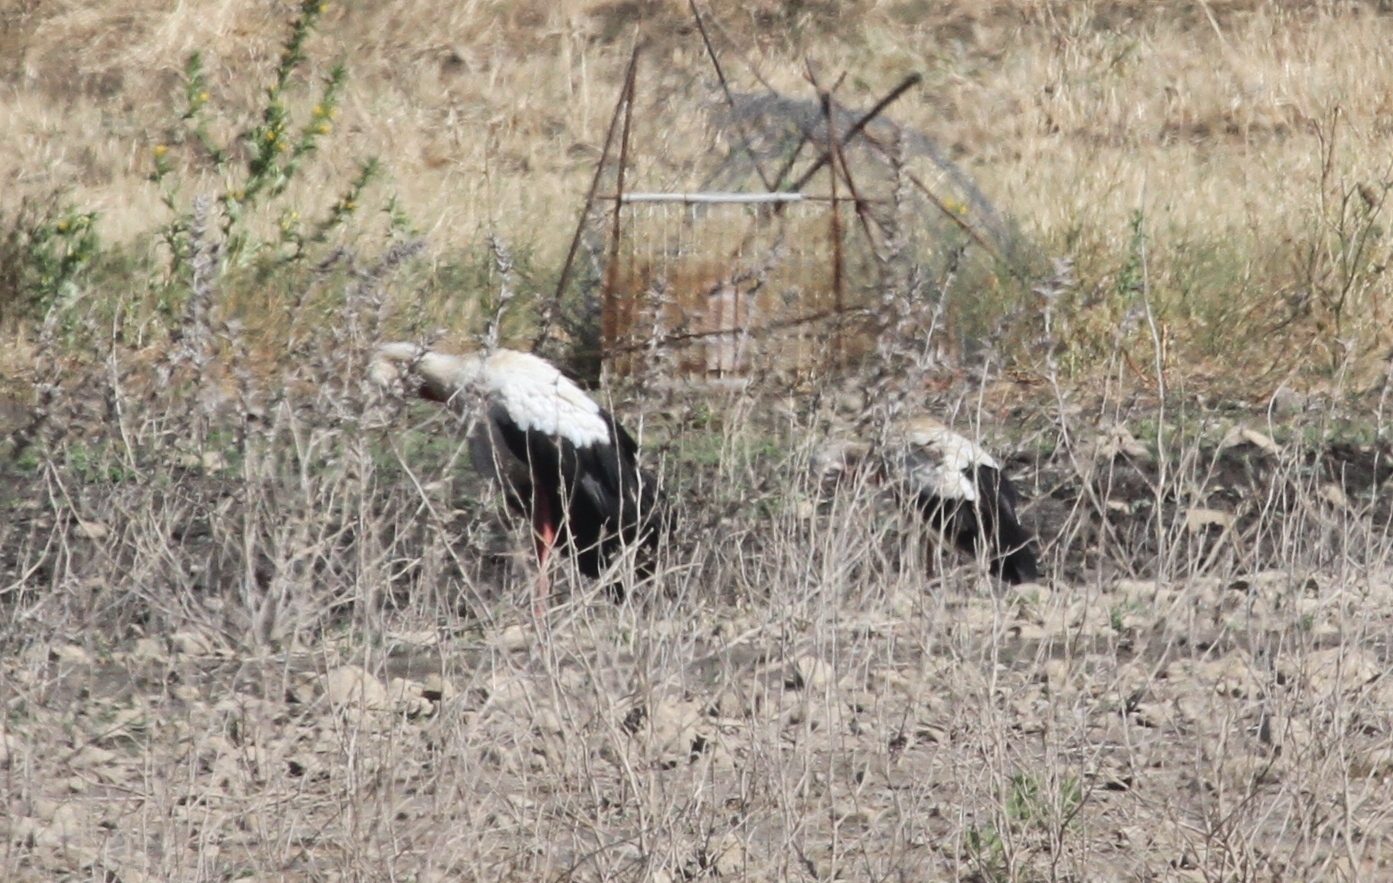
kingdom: Animalia
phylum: Chordata
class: Aves
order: Ciconiiformes
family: Ciconiidae
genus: Ciconia
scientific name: Ciconia ciconia
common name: White stork
